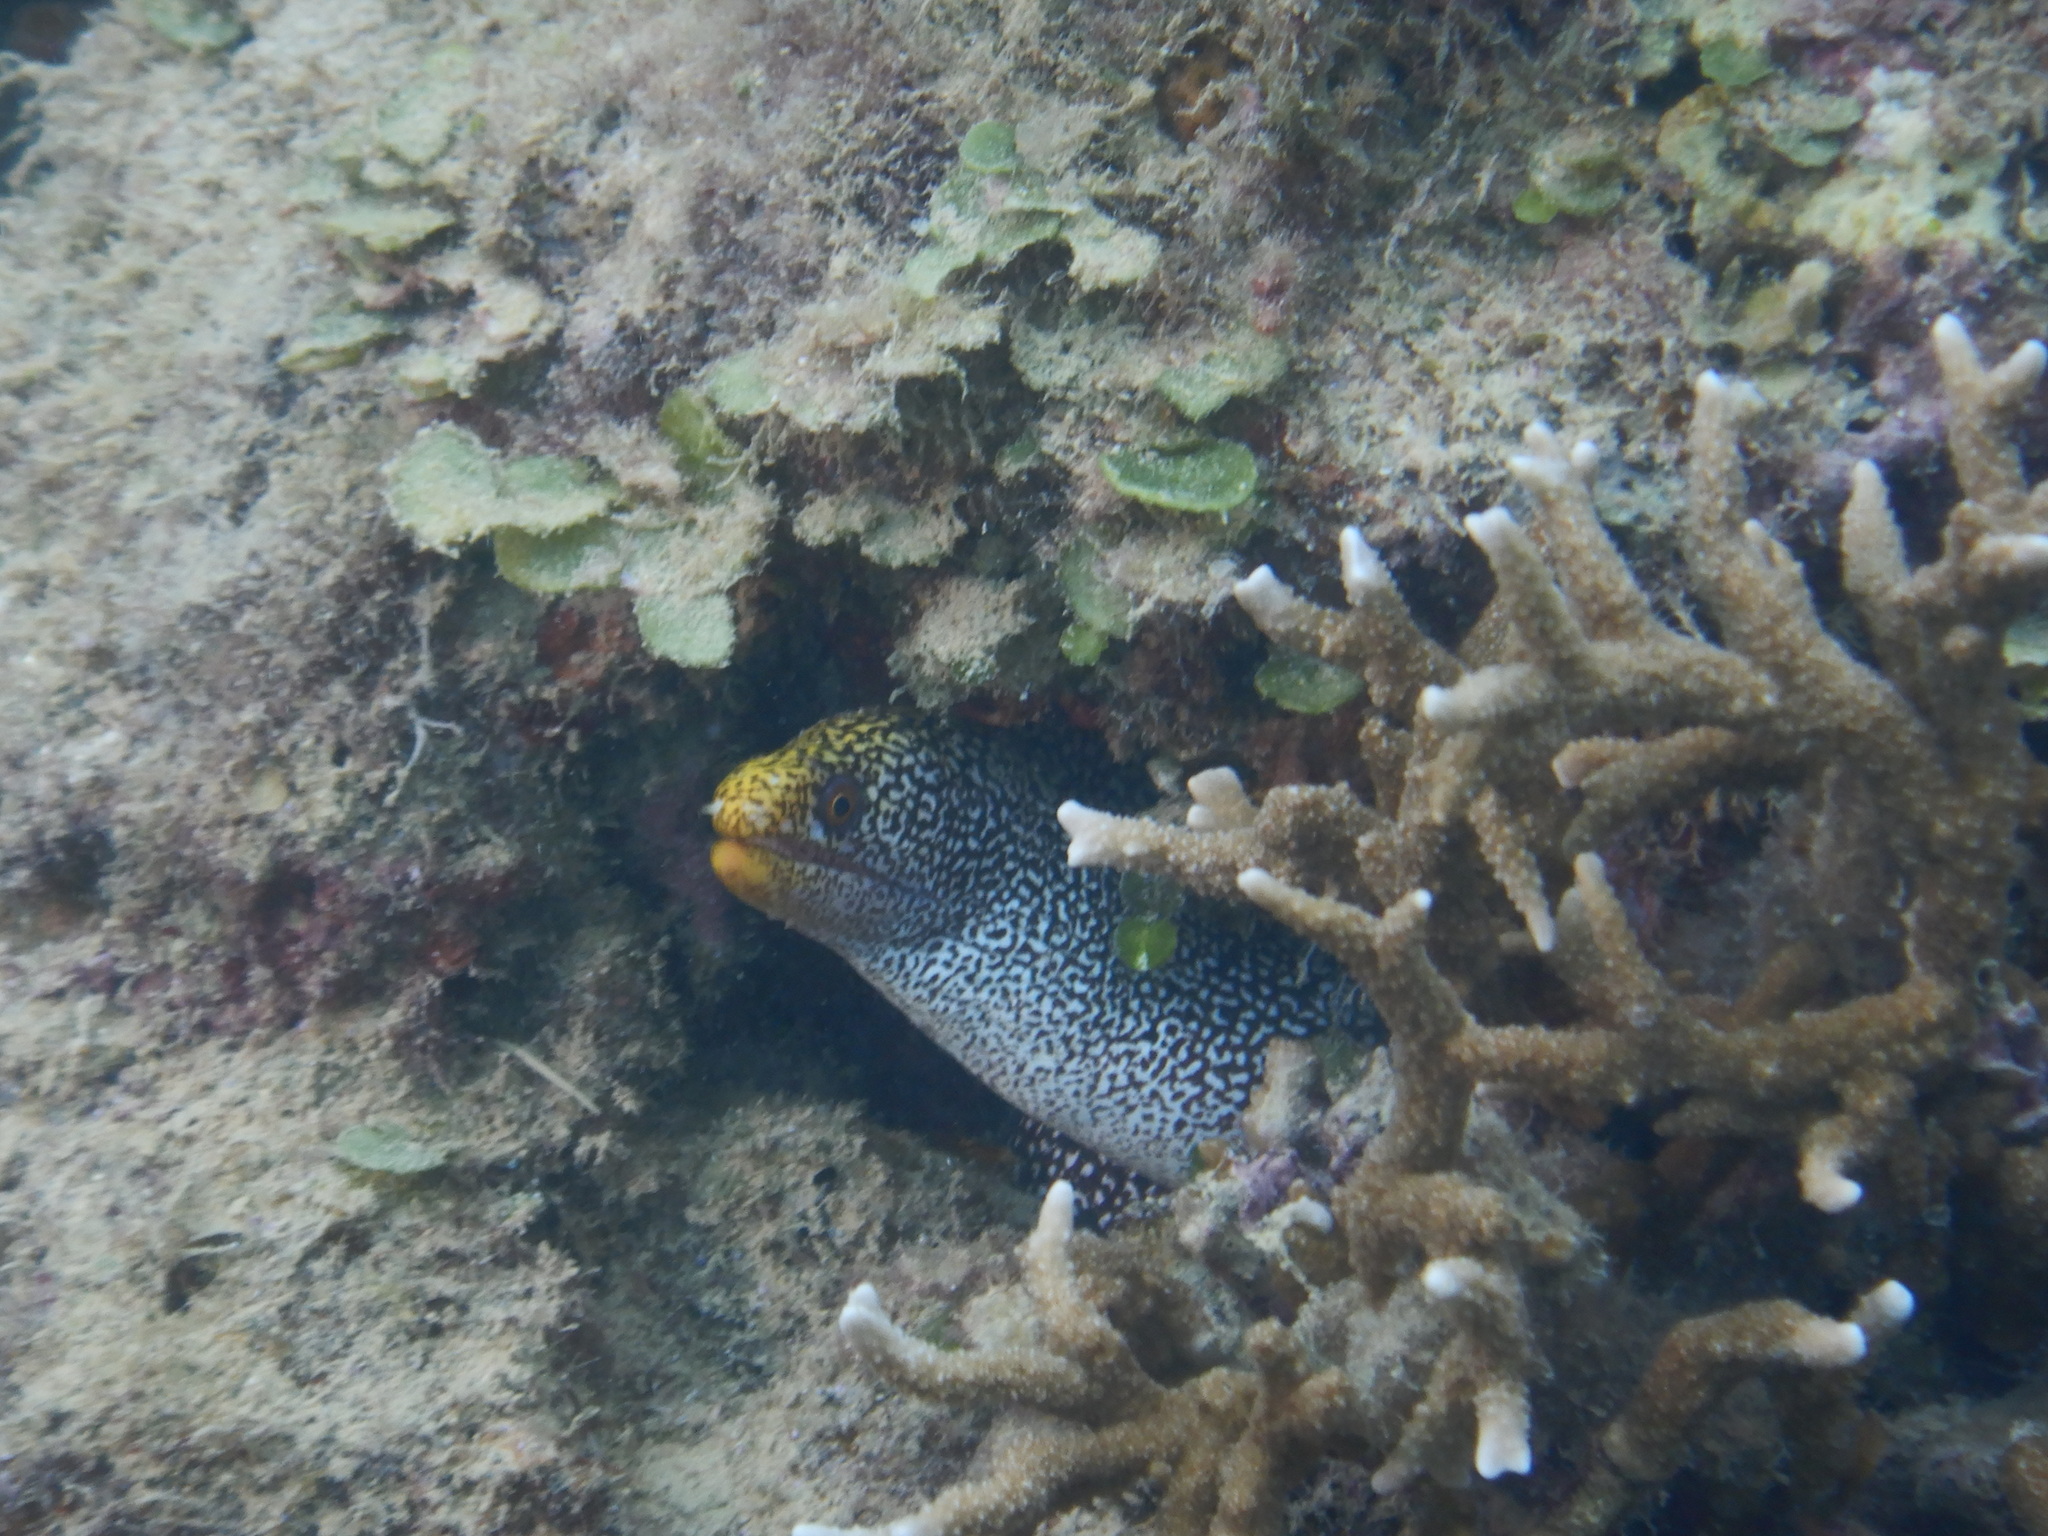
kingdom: Animalia
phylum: Chordata
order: Anguilliformes
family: Muraenidae
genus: Gymnothorax
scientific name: Gymnothorax eurostus
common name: Stout moray
